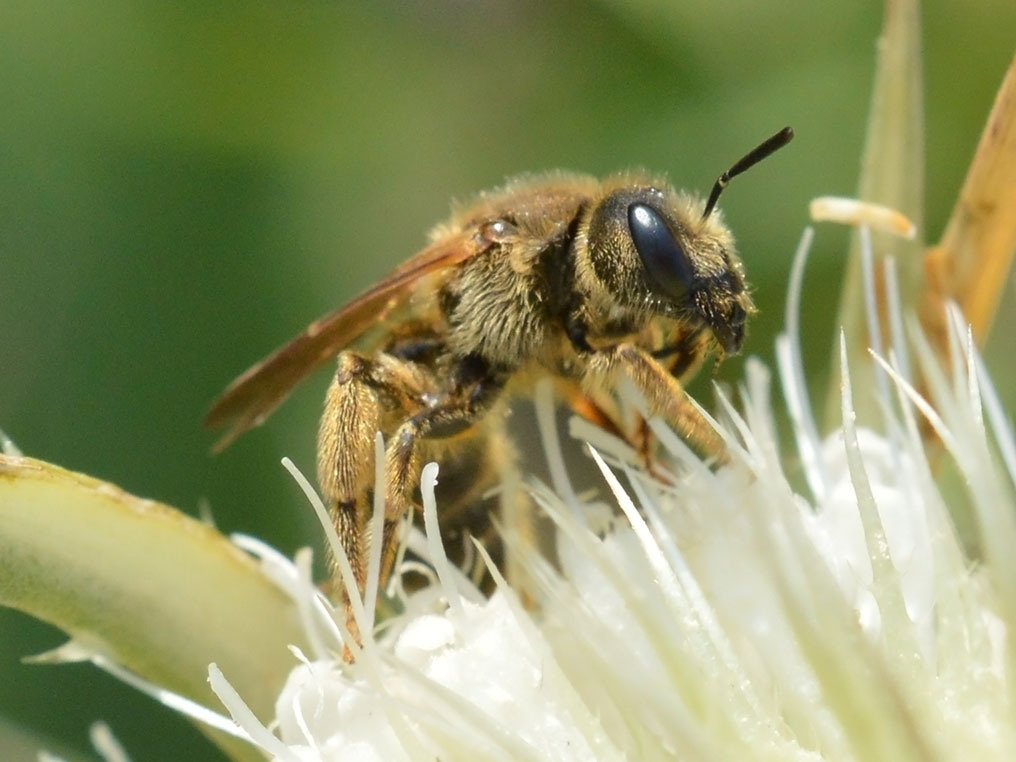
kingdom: Animalia
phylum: Arthropoda
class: Insecta
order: Hymenoptera
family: Halictidae
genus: Halictus
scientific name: Halictus scabiosae
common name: Great banded furrow bee
